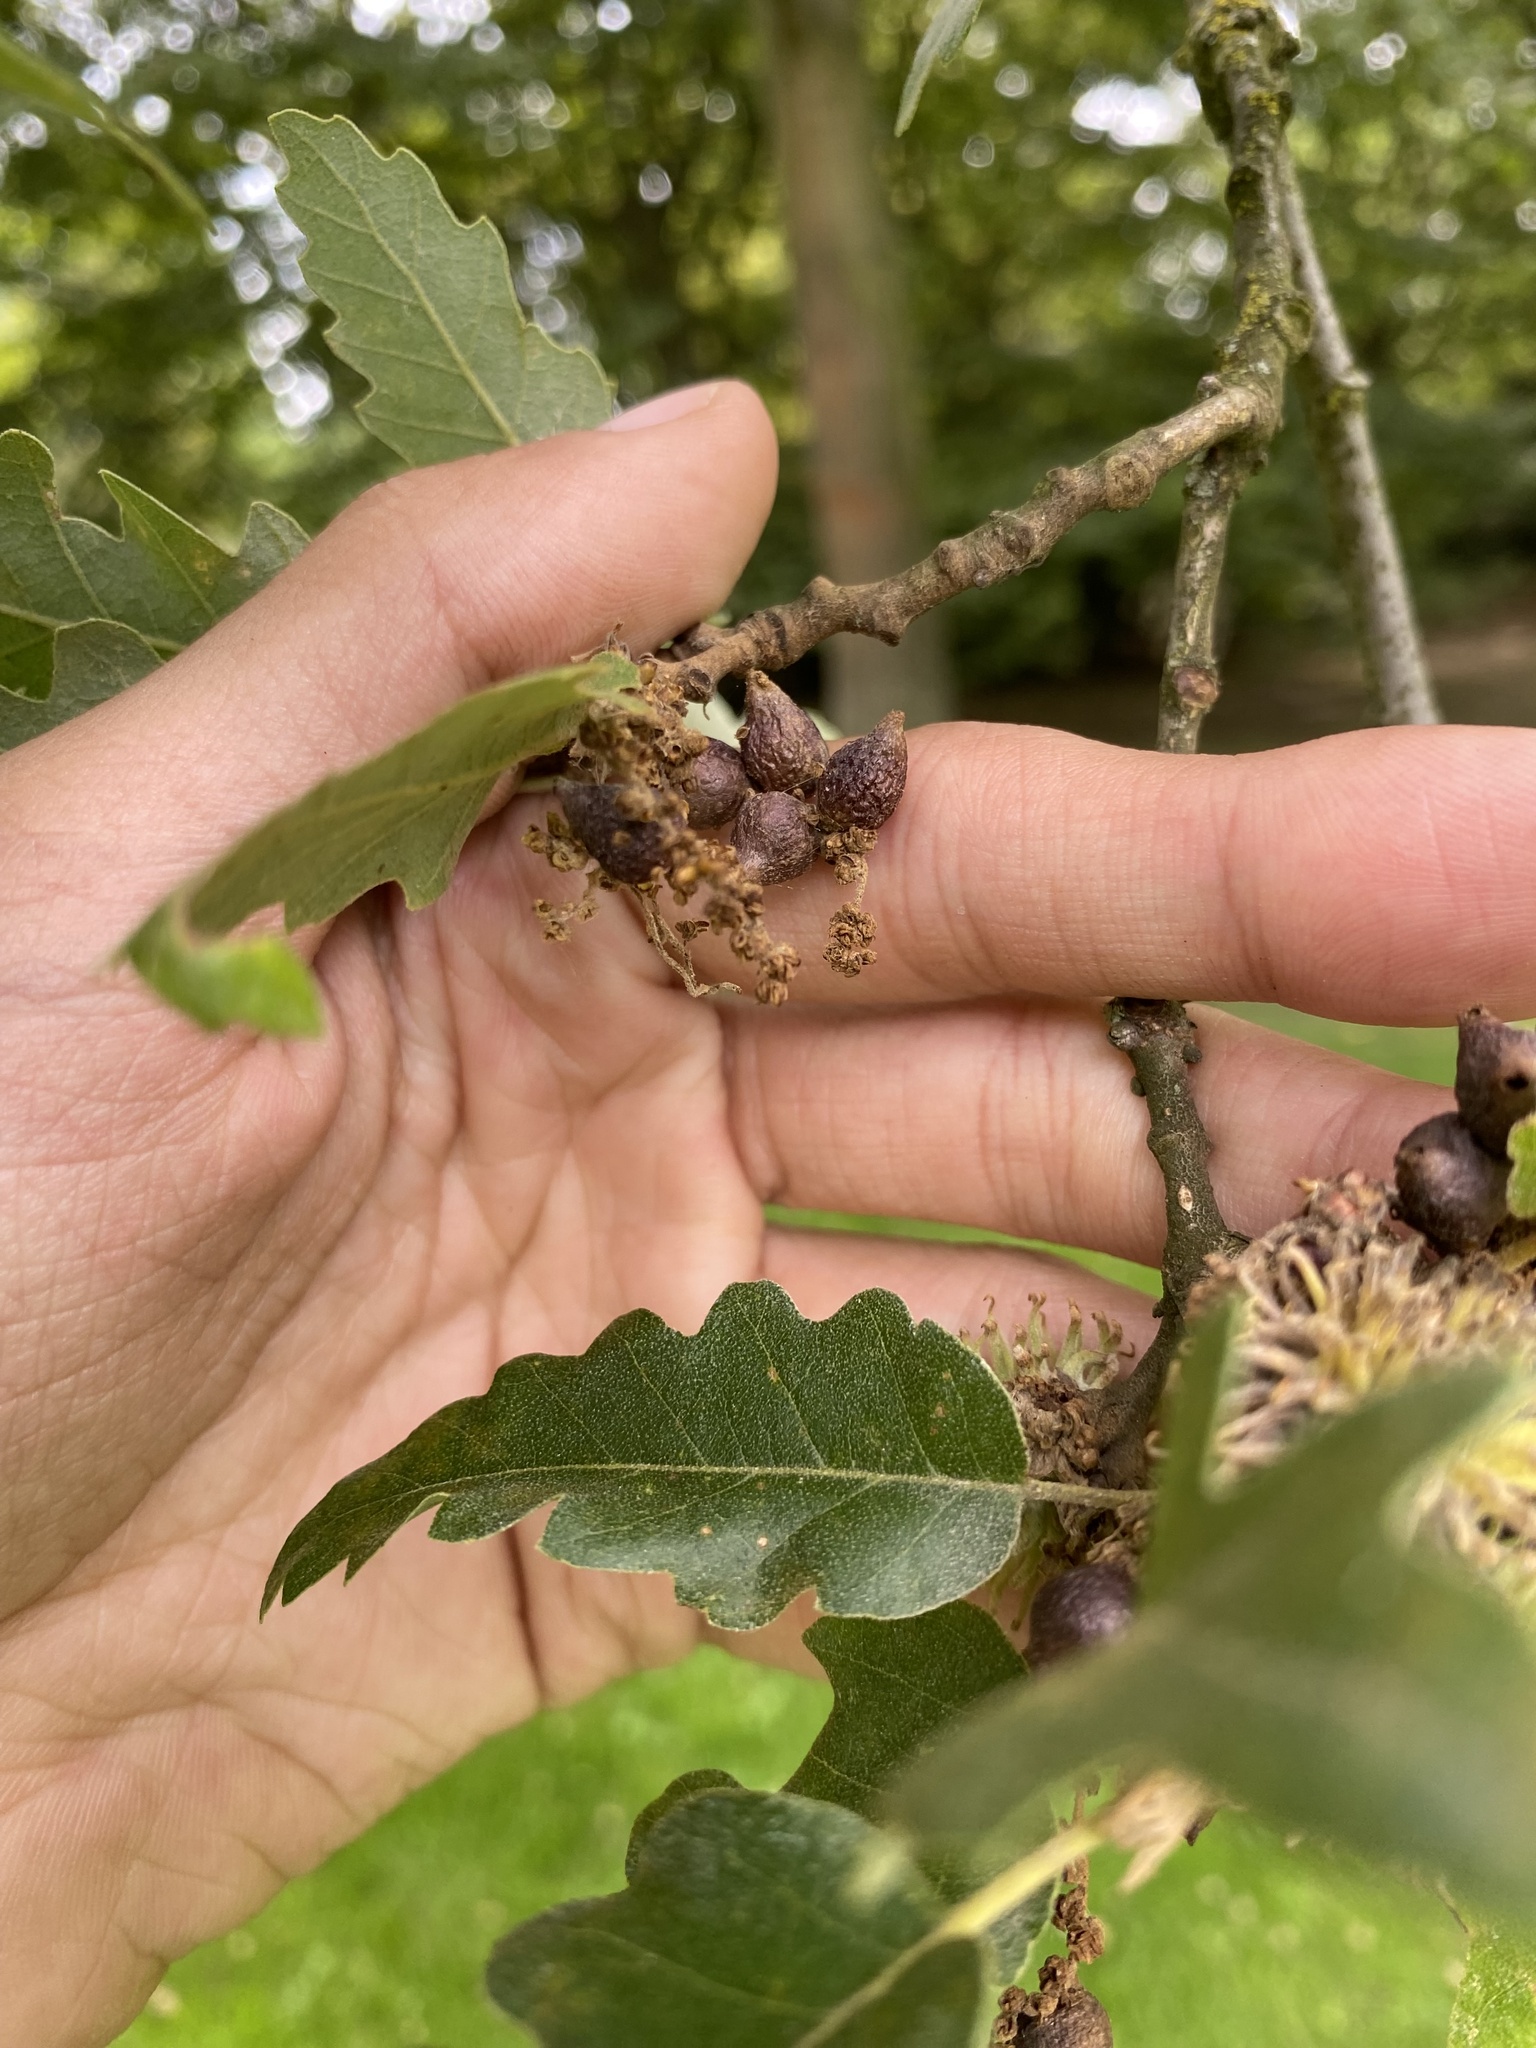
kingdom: Animalia
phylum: Arthropoda
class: Insecta
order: Hymenoptera
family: Cynipidae
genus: Andricus
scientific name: Andricus grossulariae
